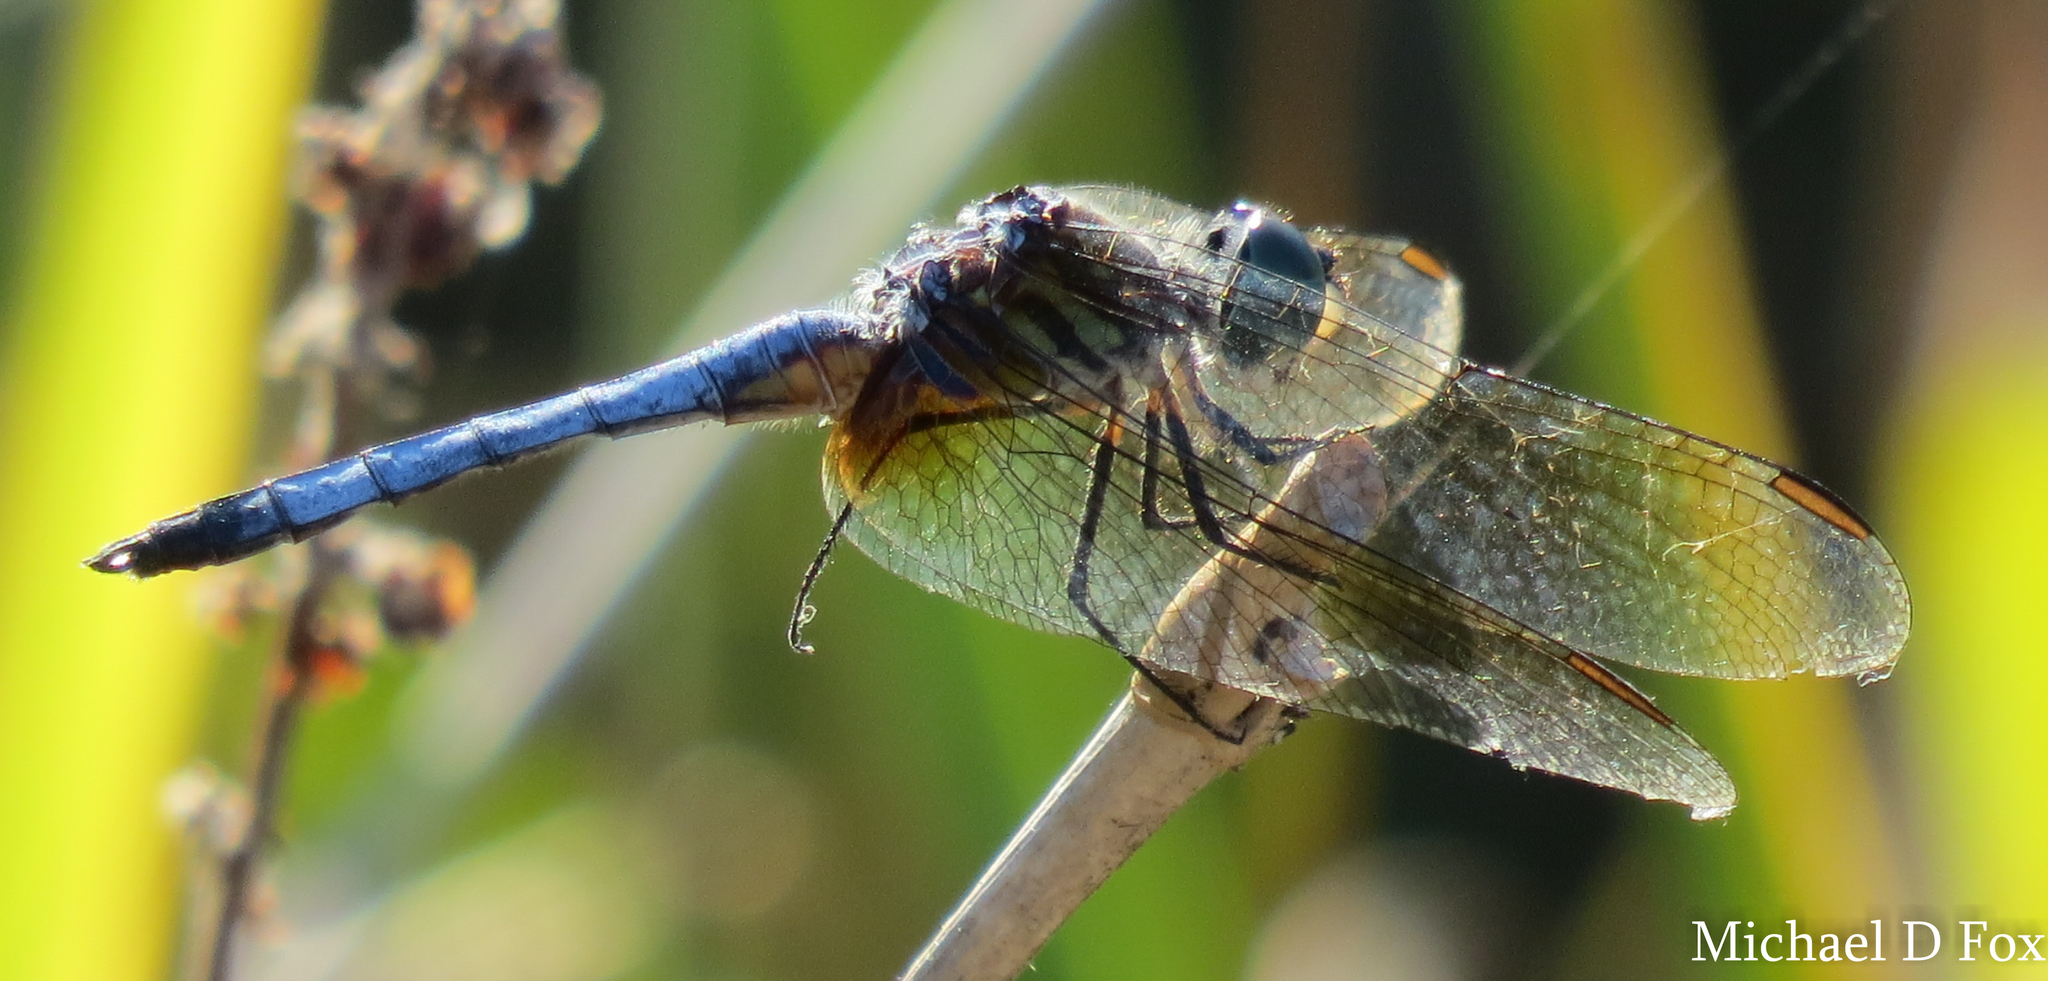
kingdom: Animalia
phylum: Arthropoda
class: Insecta
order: Odonata
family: Libellulidae
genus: Pachydiplax
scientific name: Pachydiplax longipennis
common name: Blue dasher
